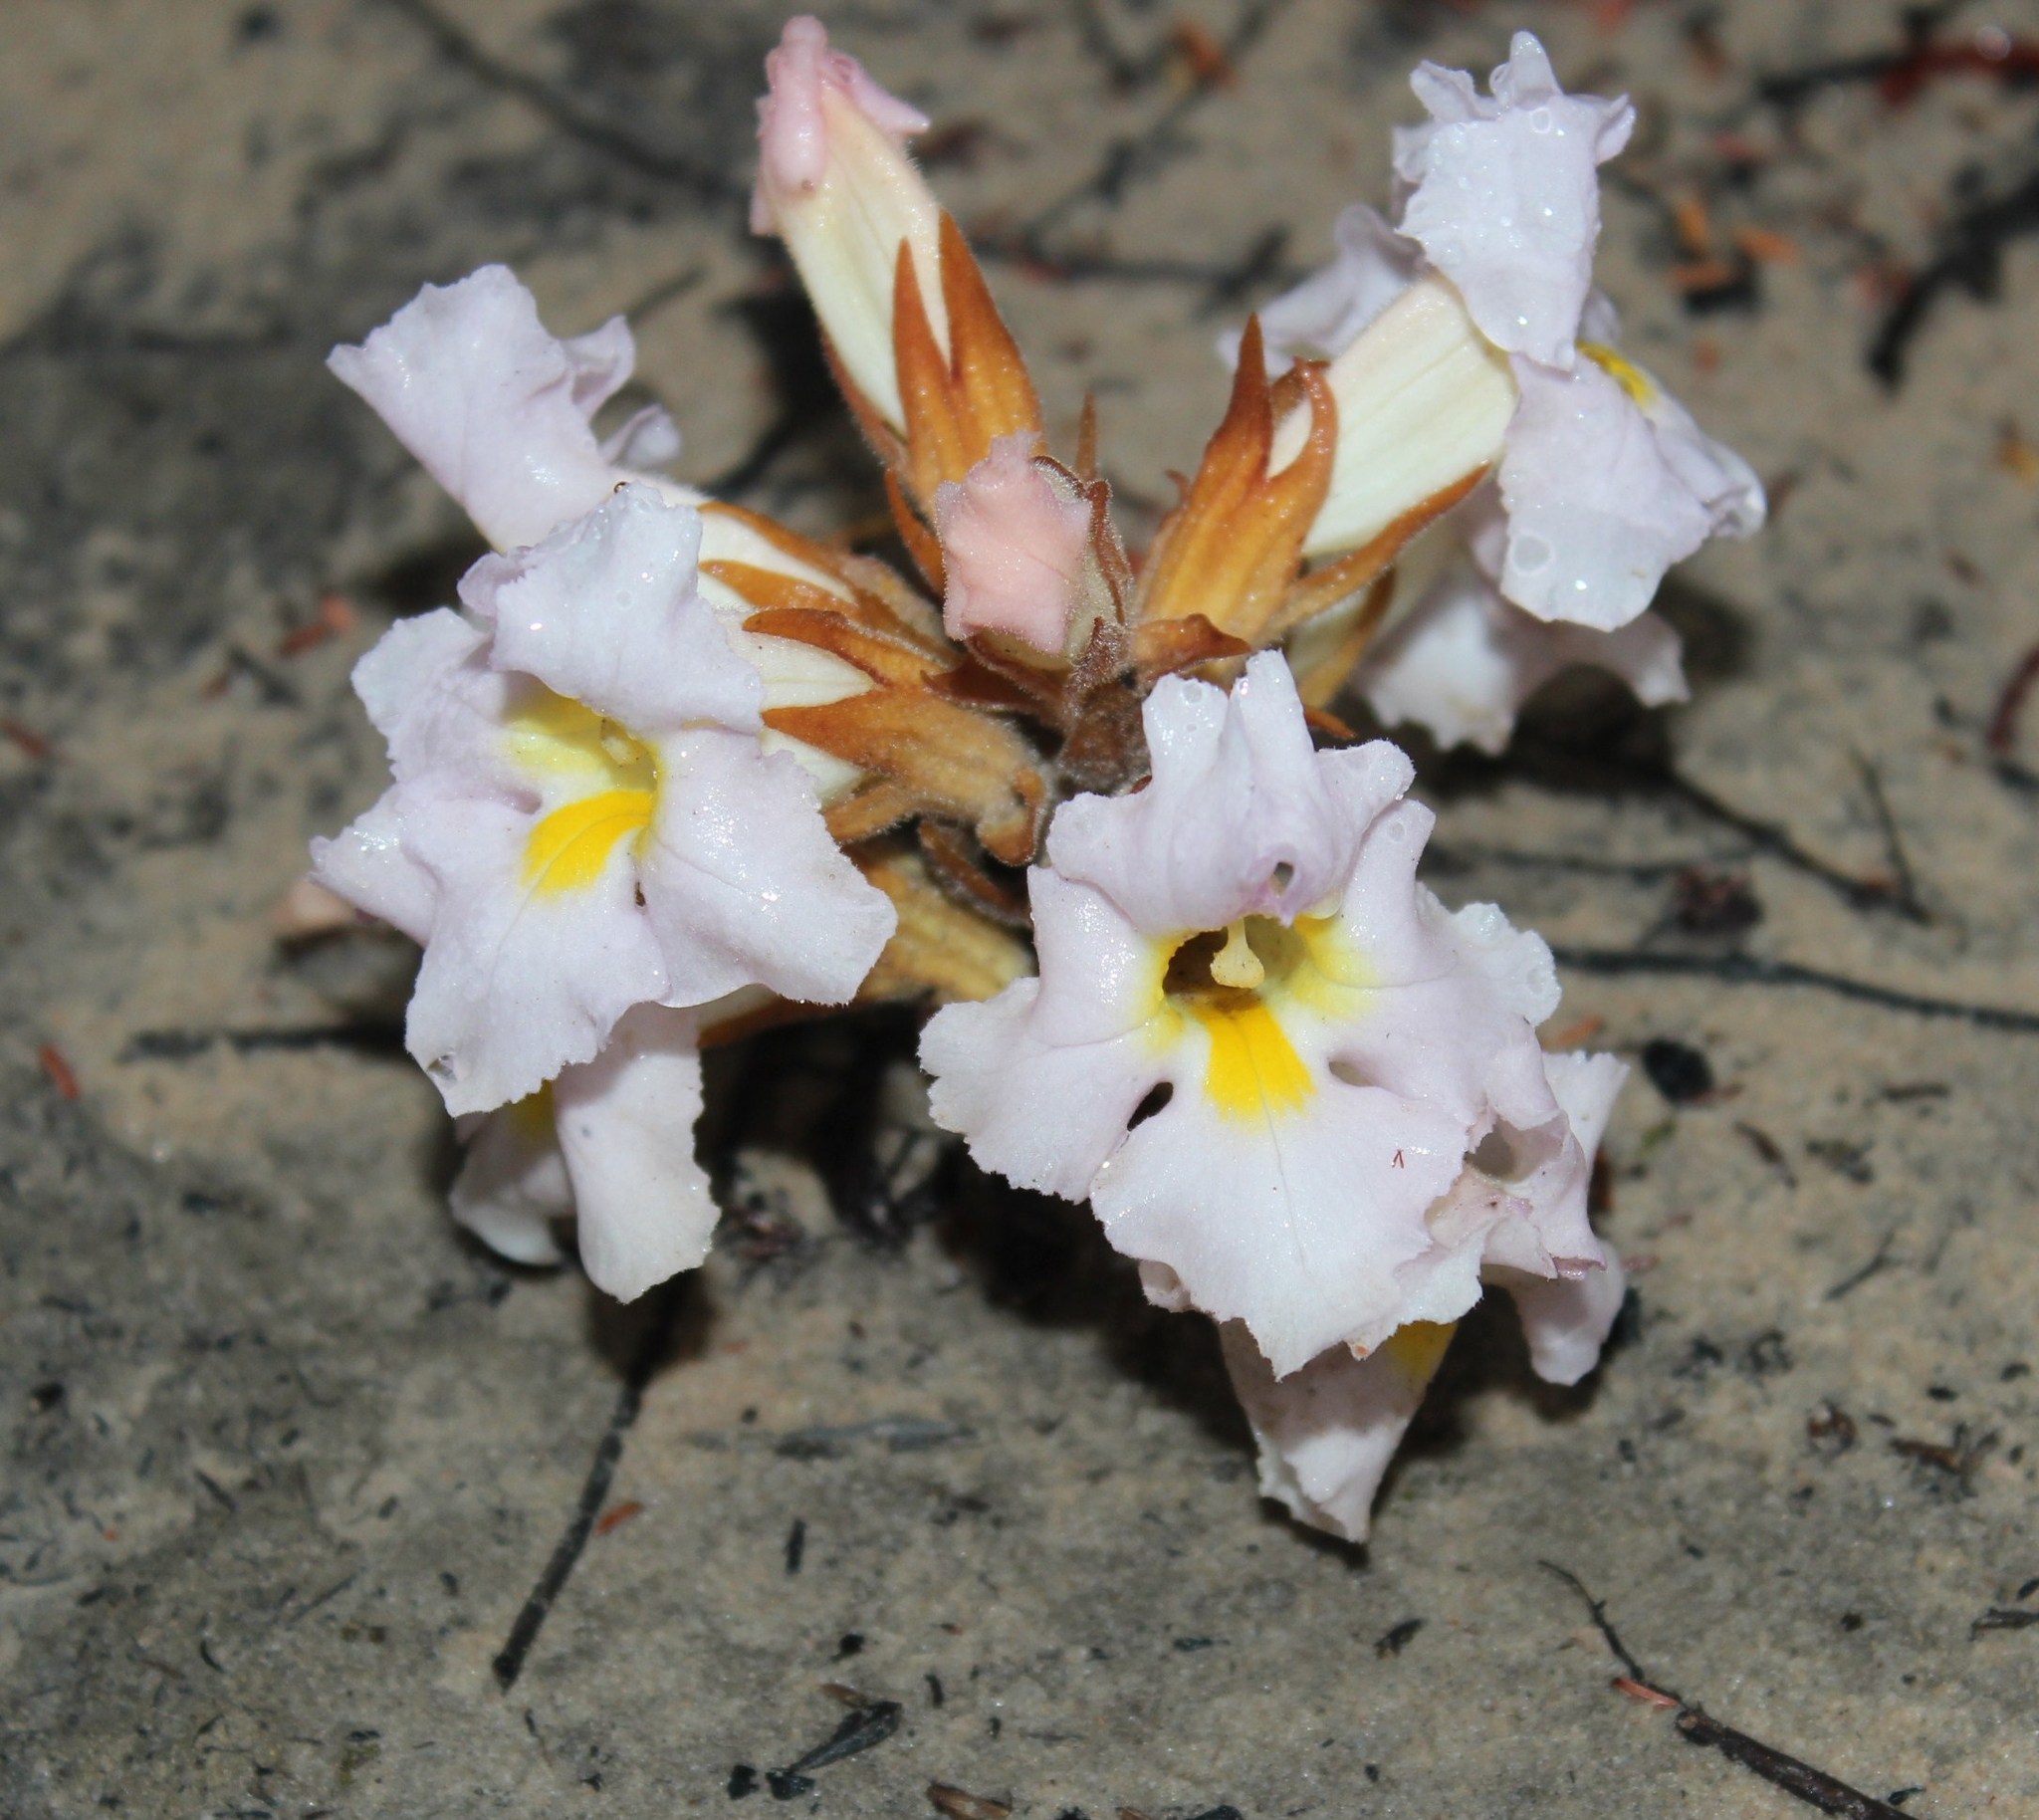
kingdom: Plantae
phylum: Tracheophyta
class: Magnoliopsida
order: Lamiales
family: Orobanchaceae
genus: Harveya
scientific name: Harveya purpurea
